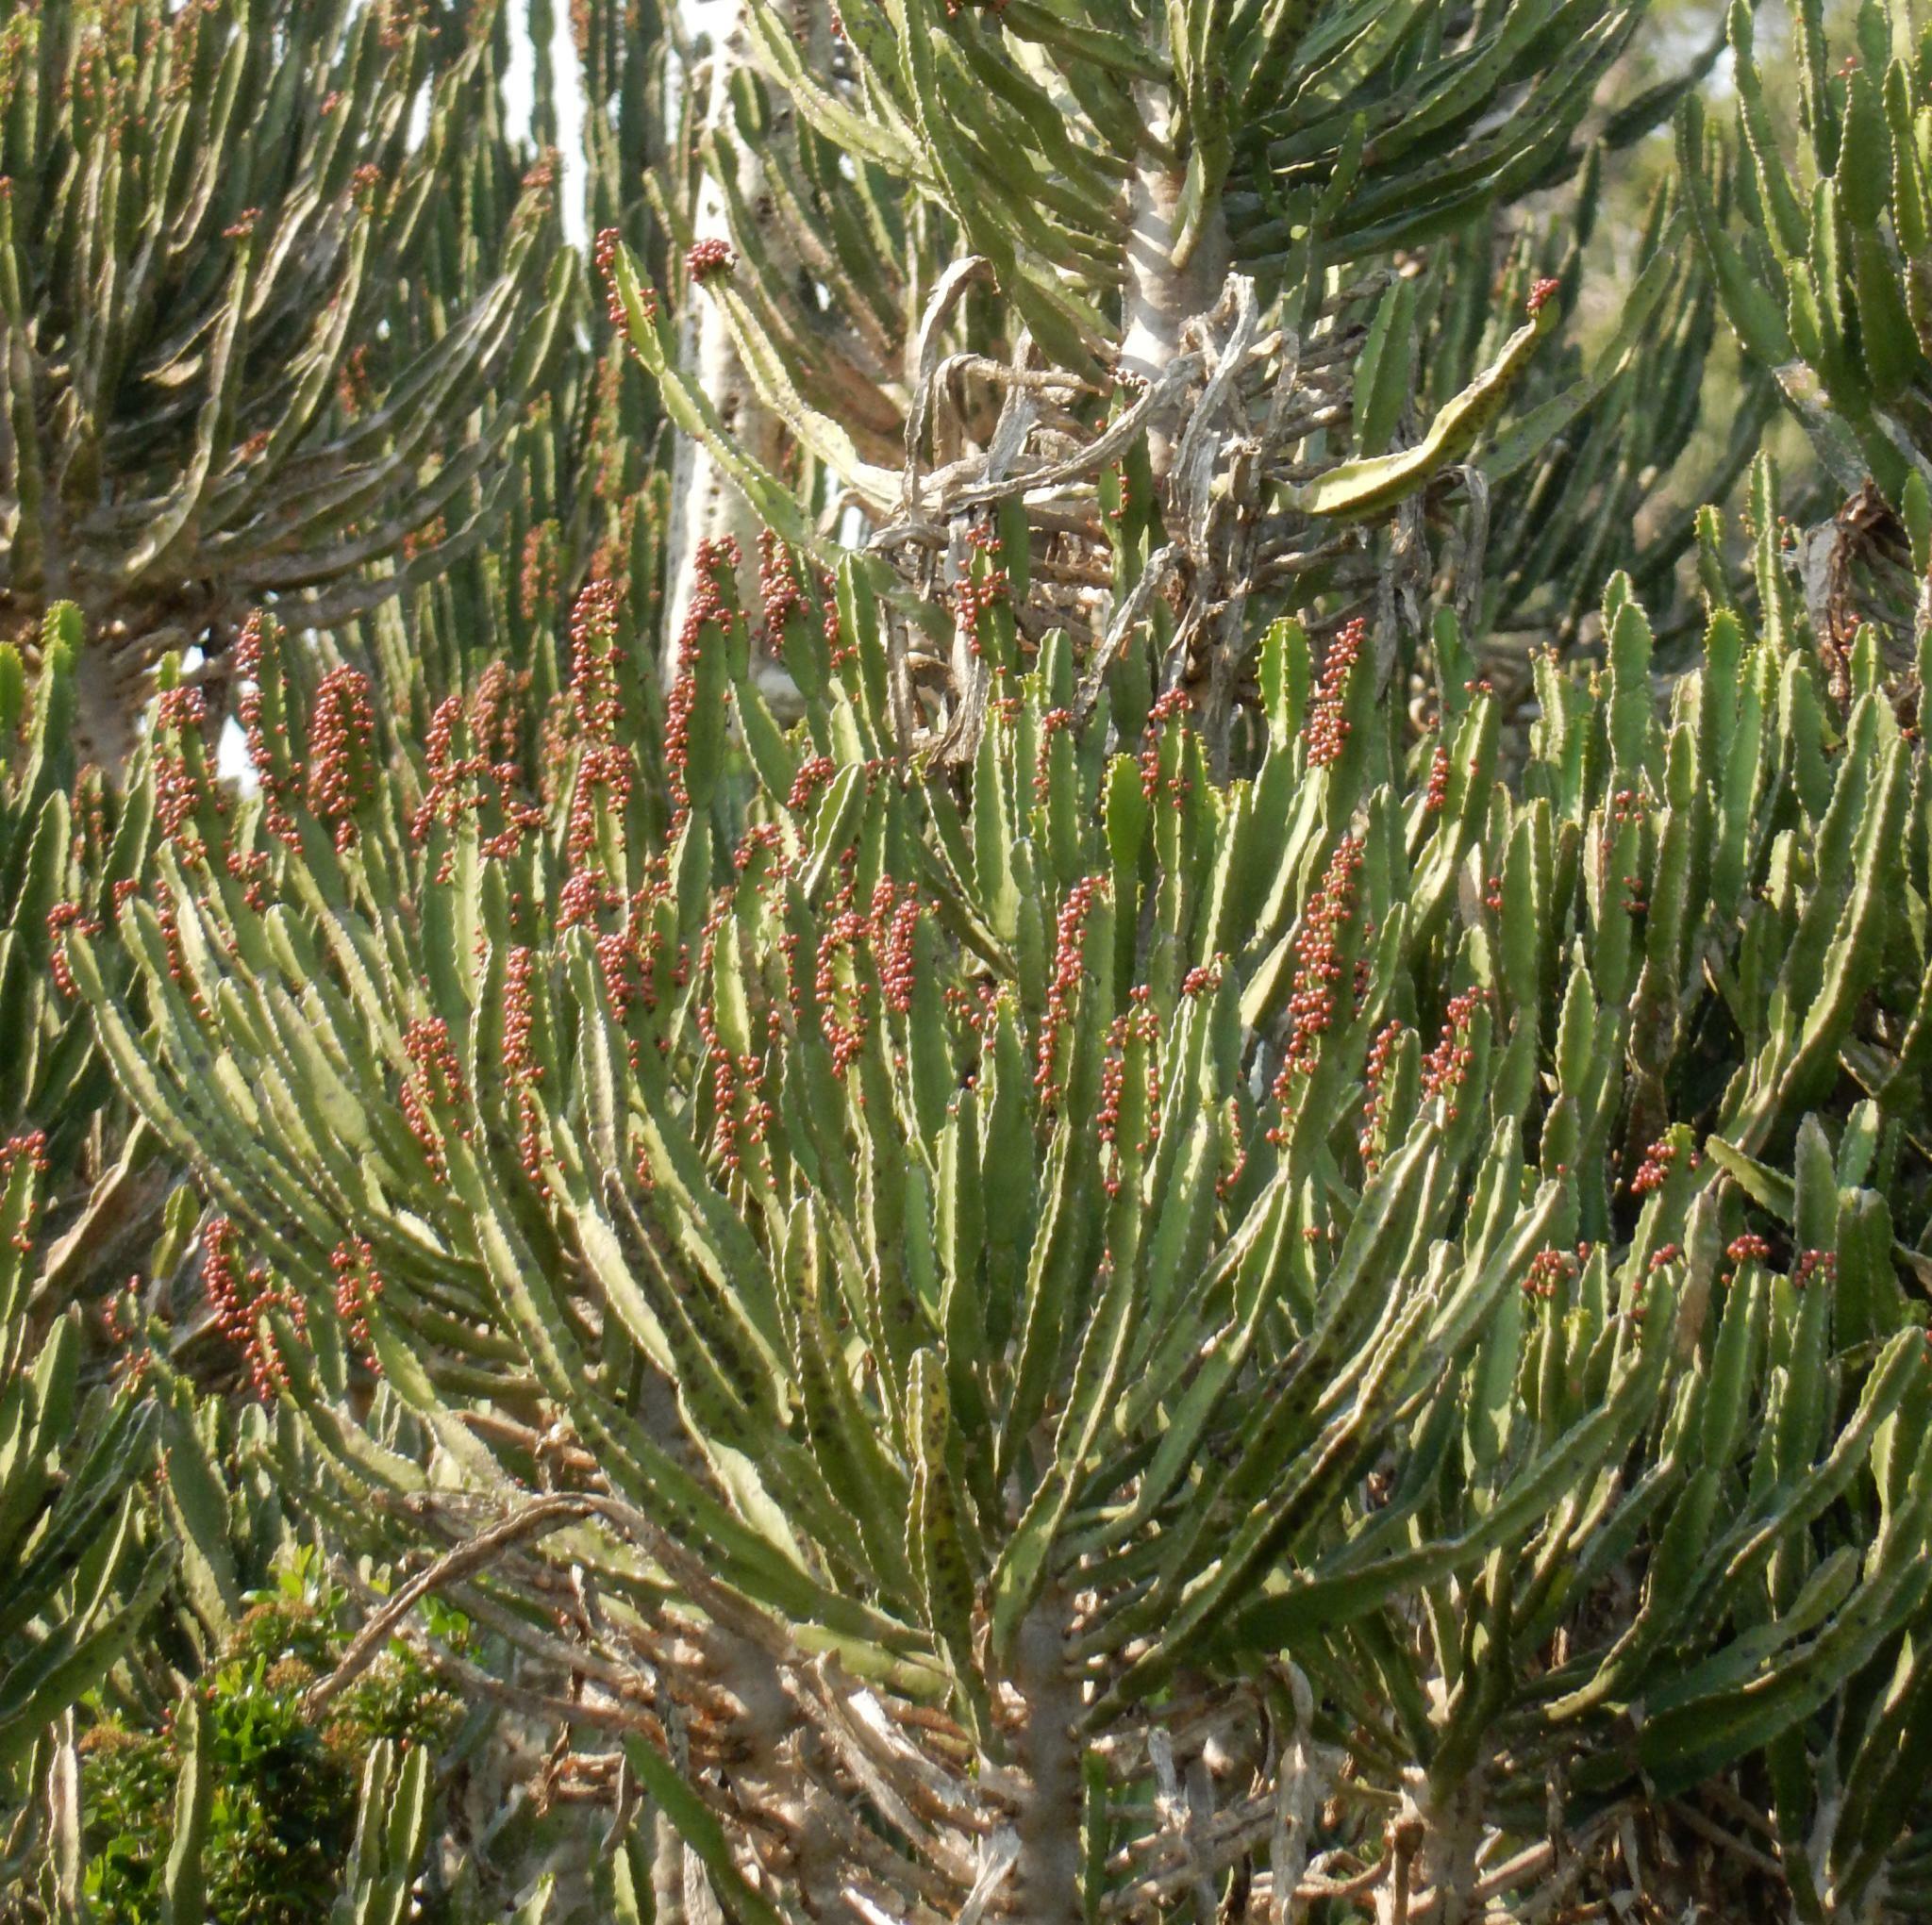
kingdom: Plantae
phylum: Tracheophyta
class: Magnoliopsida
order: Malpighiales
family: Euphorbiaceae
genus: Euphorbia
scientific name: Euphorbia triangularis
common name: Chandelier tree
